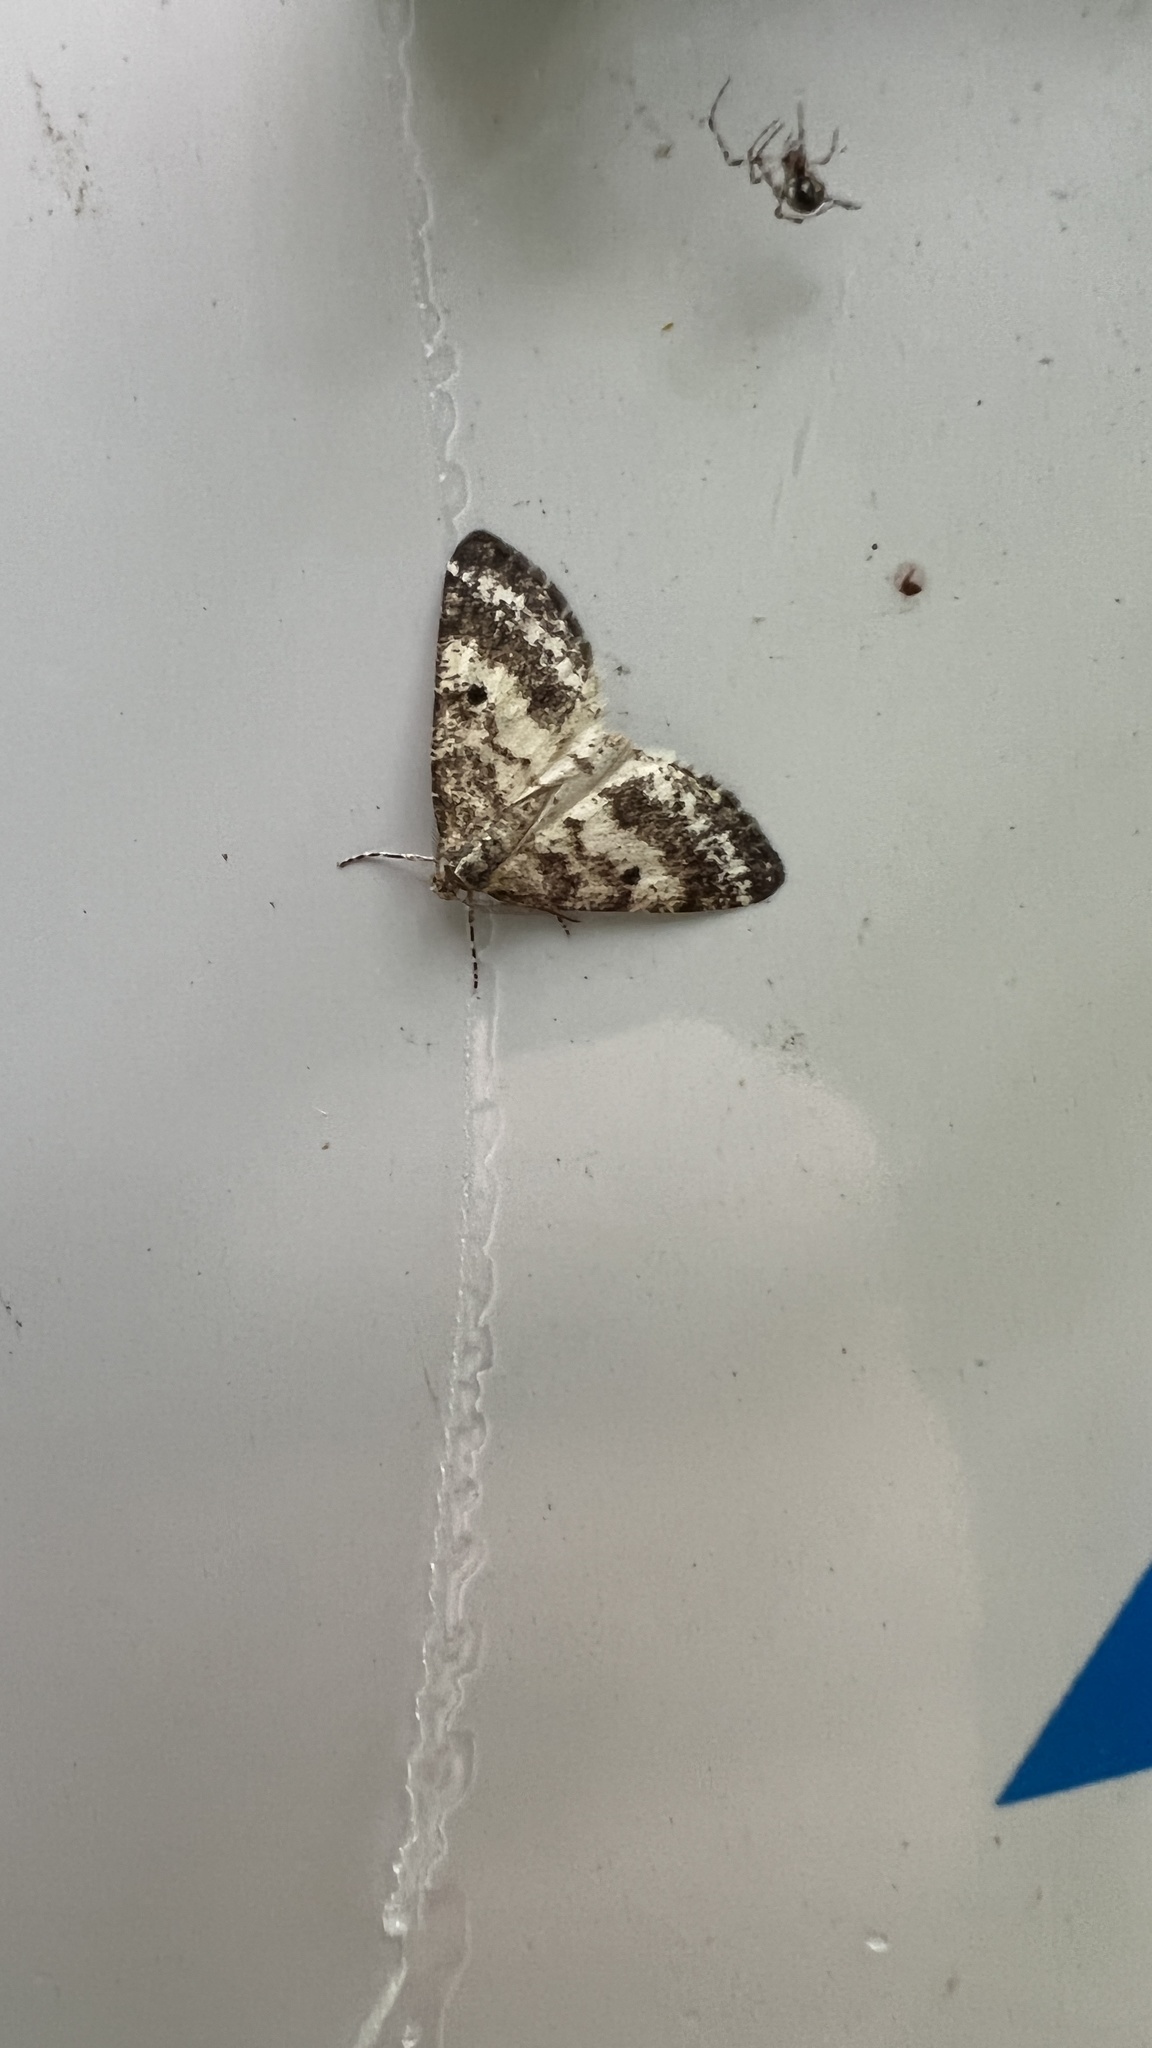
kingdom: Animalia
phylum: Arthropoda
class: Insecta
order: Lepidoptera
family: Geometridae
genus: Eufidonia
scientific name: Eufidonia notataria
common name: Powder moth
